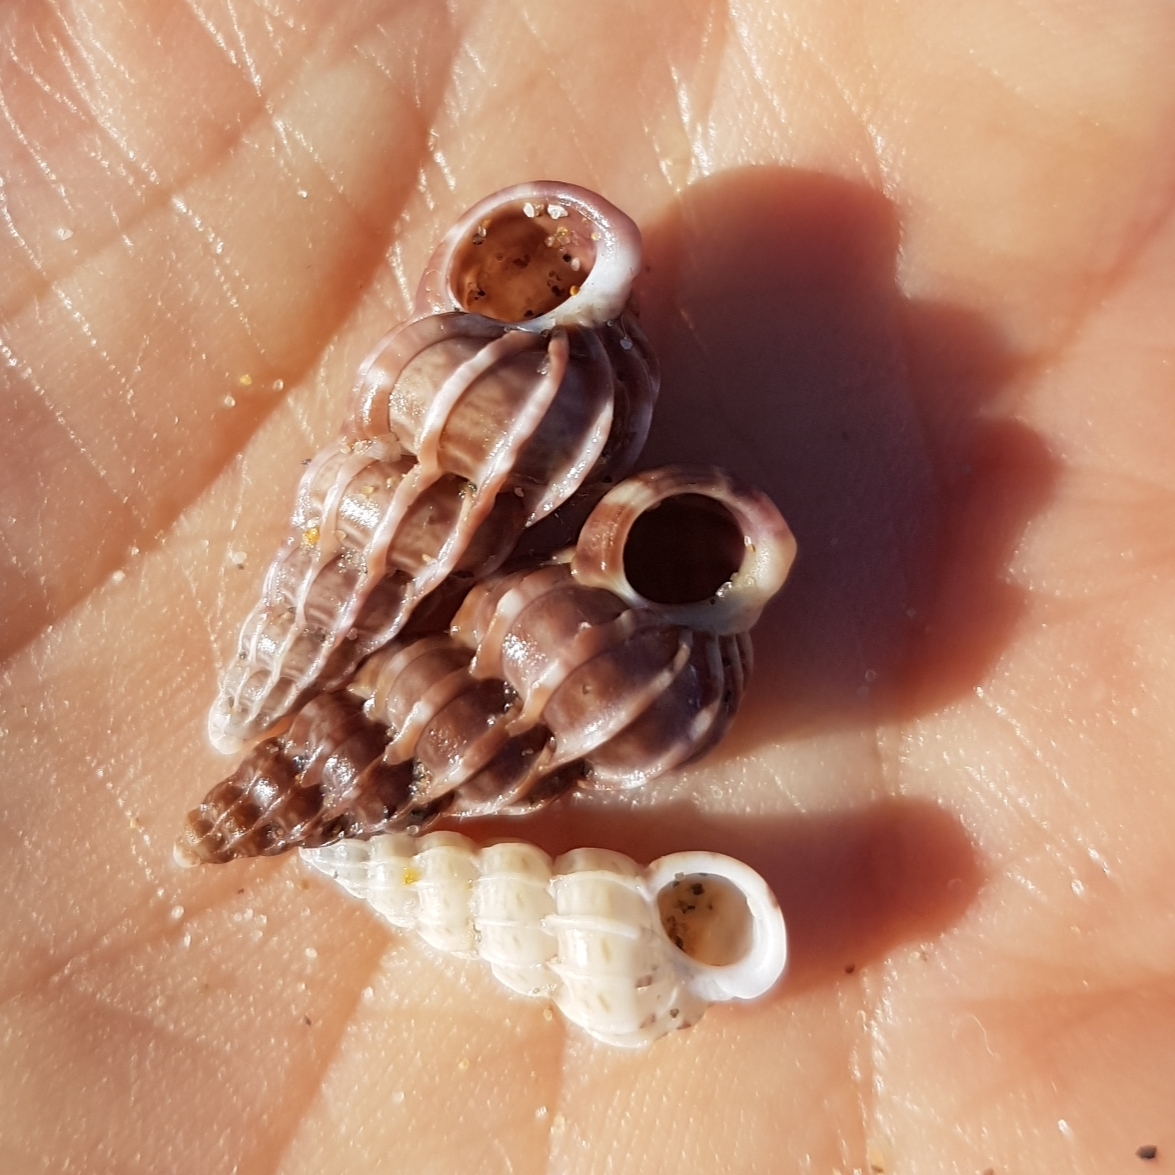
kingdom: Animalia
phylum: Mollusca
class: Gastropoda
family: Epitoniidae
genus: Epitonium
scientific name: Epitonium clathrus
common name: Common wentletrap
